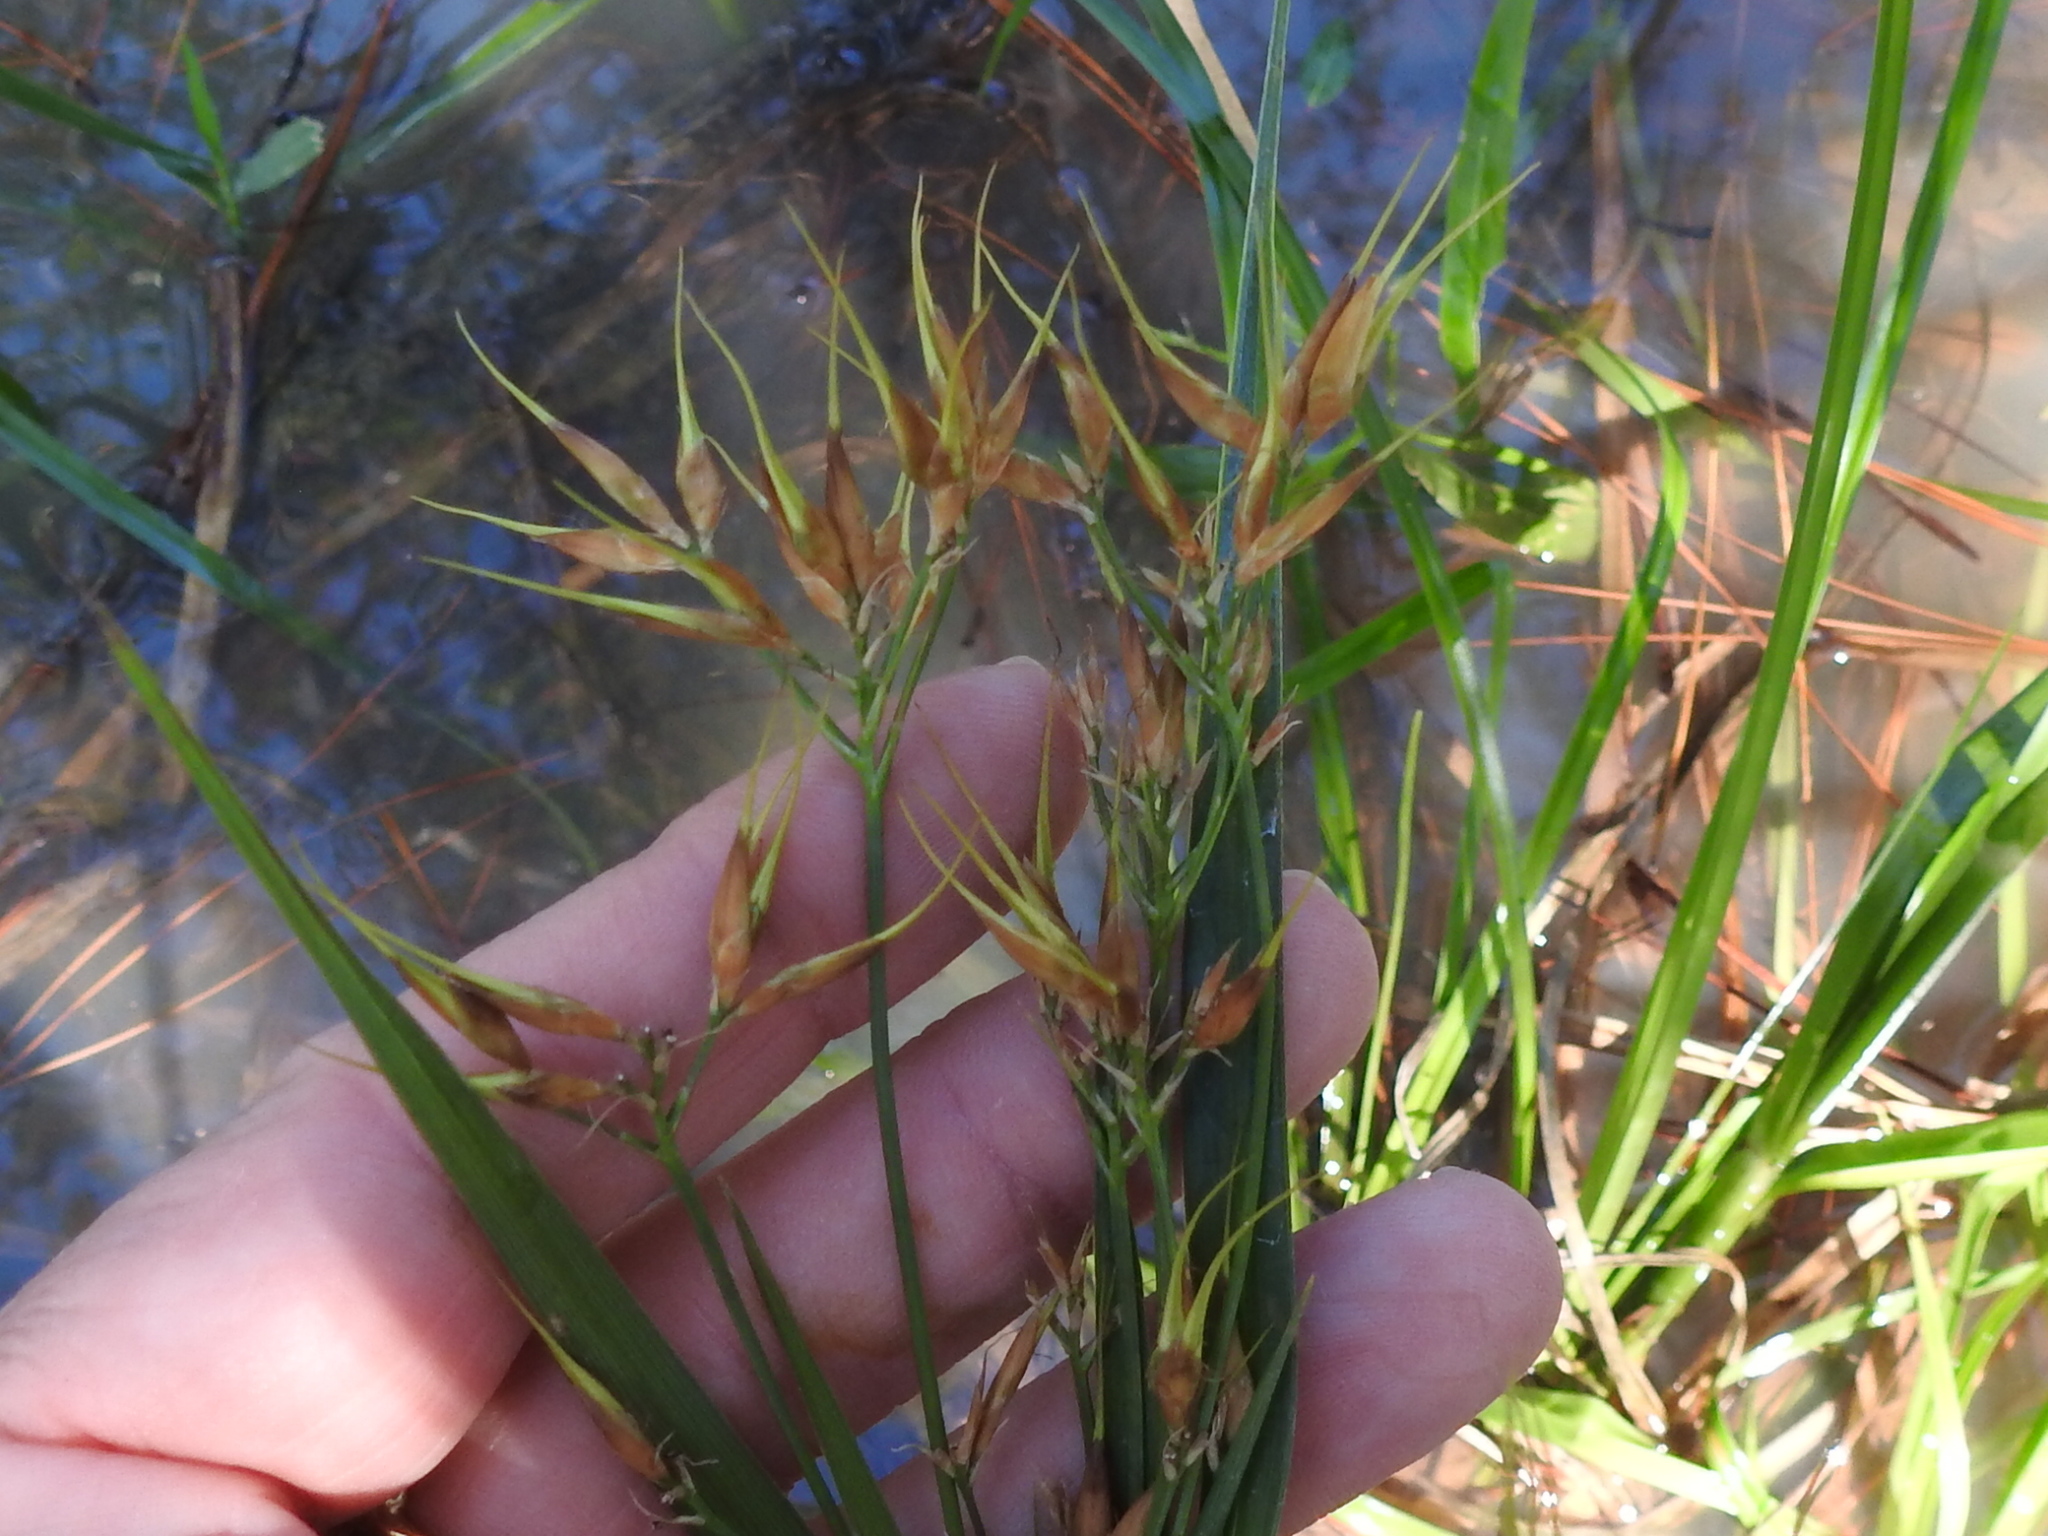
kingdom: Plantae
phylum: Tracheophyta
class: Liliopsida
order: Poales
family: Cyperaceae
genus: Rhynchospora
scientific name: Rhynchospora corniculata
